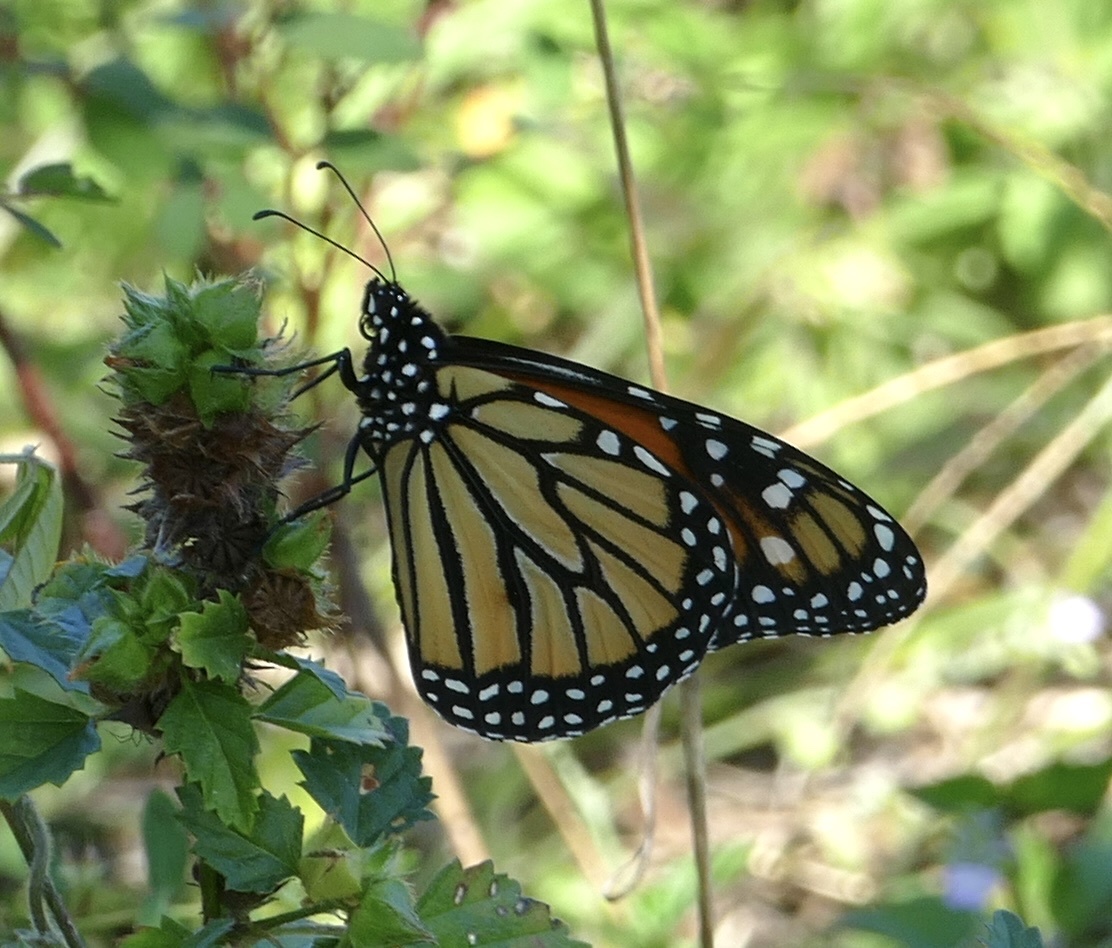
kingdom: Animalia
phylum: Arthropoda
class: Insecta
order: Lepidoptera
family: Nymphalidae
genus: Danaus
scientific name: Danaus plexippus
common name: Monarch
